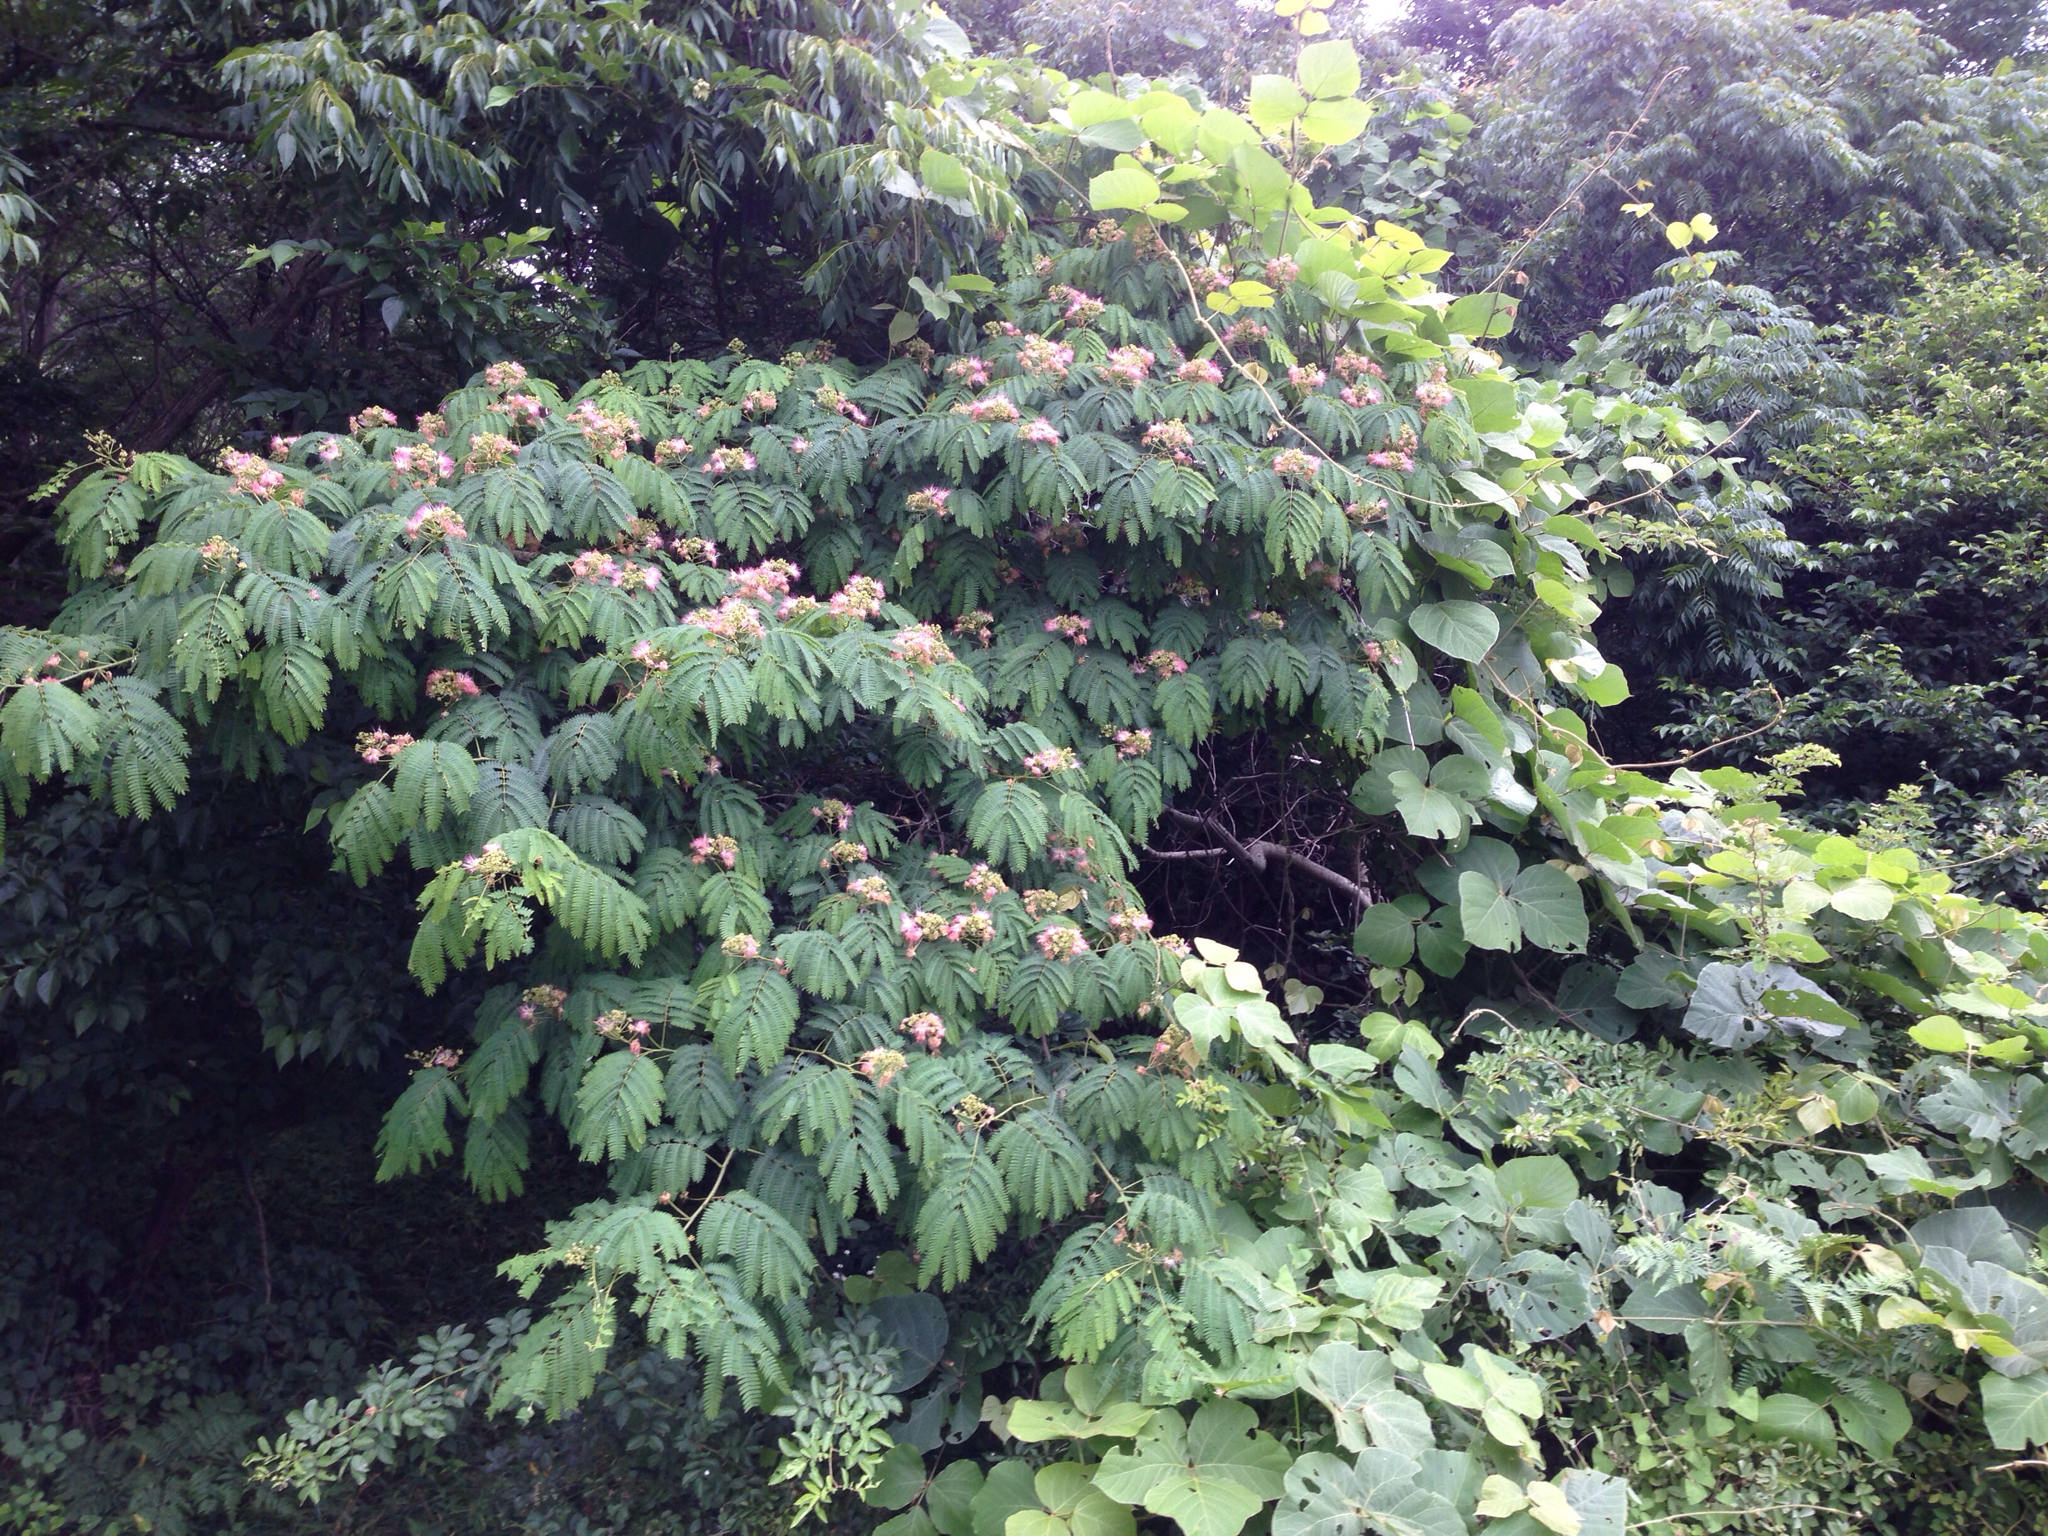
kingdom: Plantae
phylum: Tracheophyta
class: Magnoliopsida
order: Fabales
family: Fabaceae
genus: Albizia
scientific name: Albizia julibrissin
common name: Silktree
